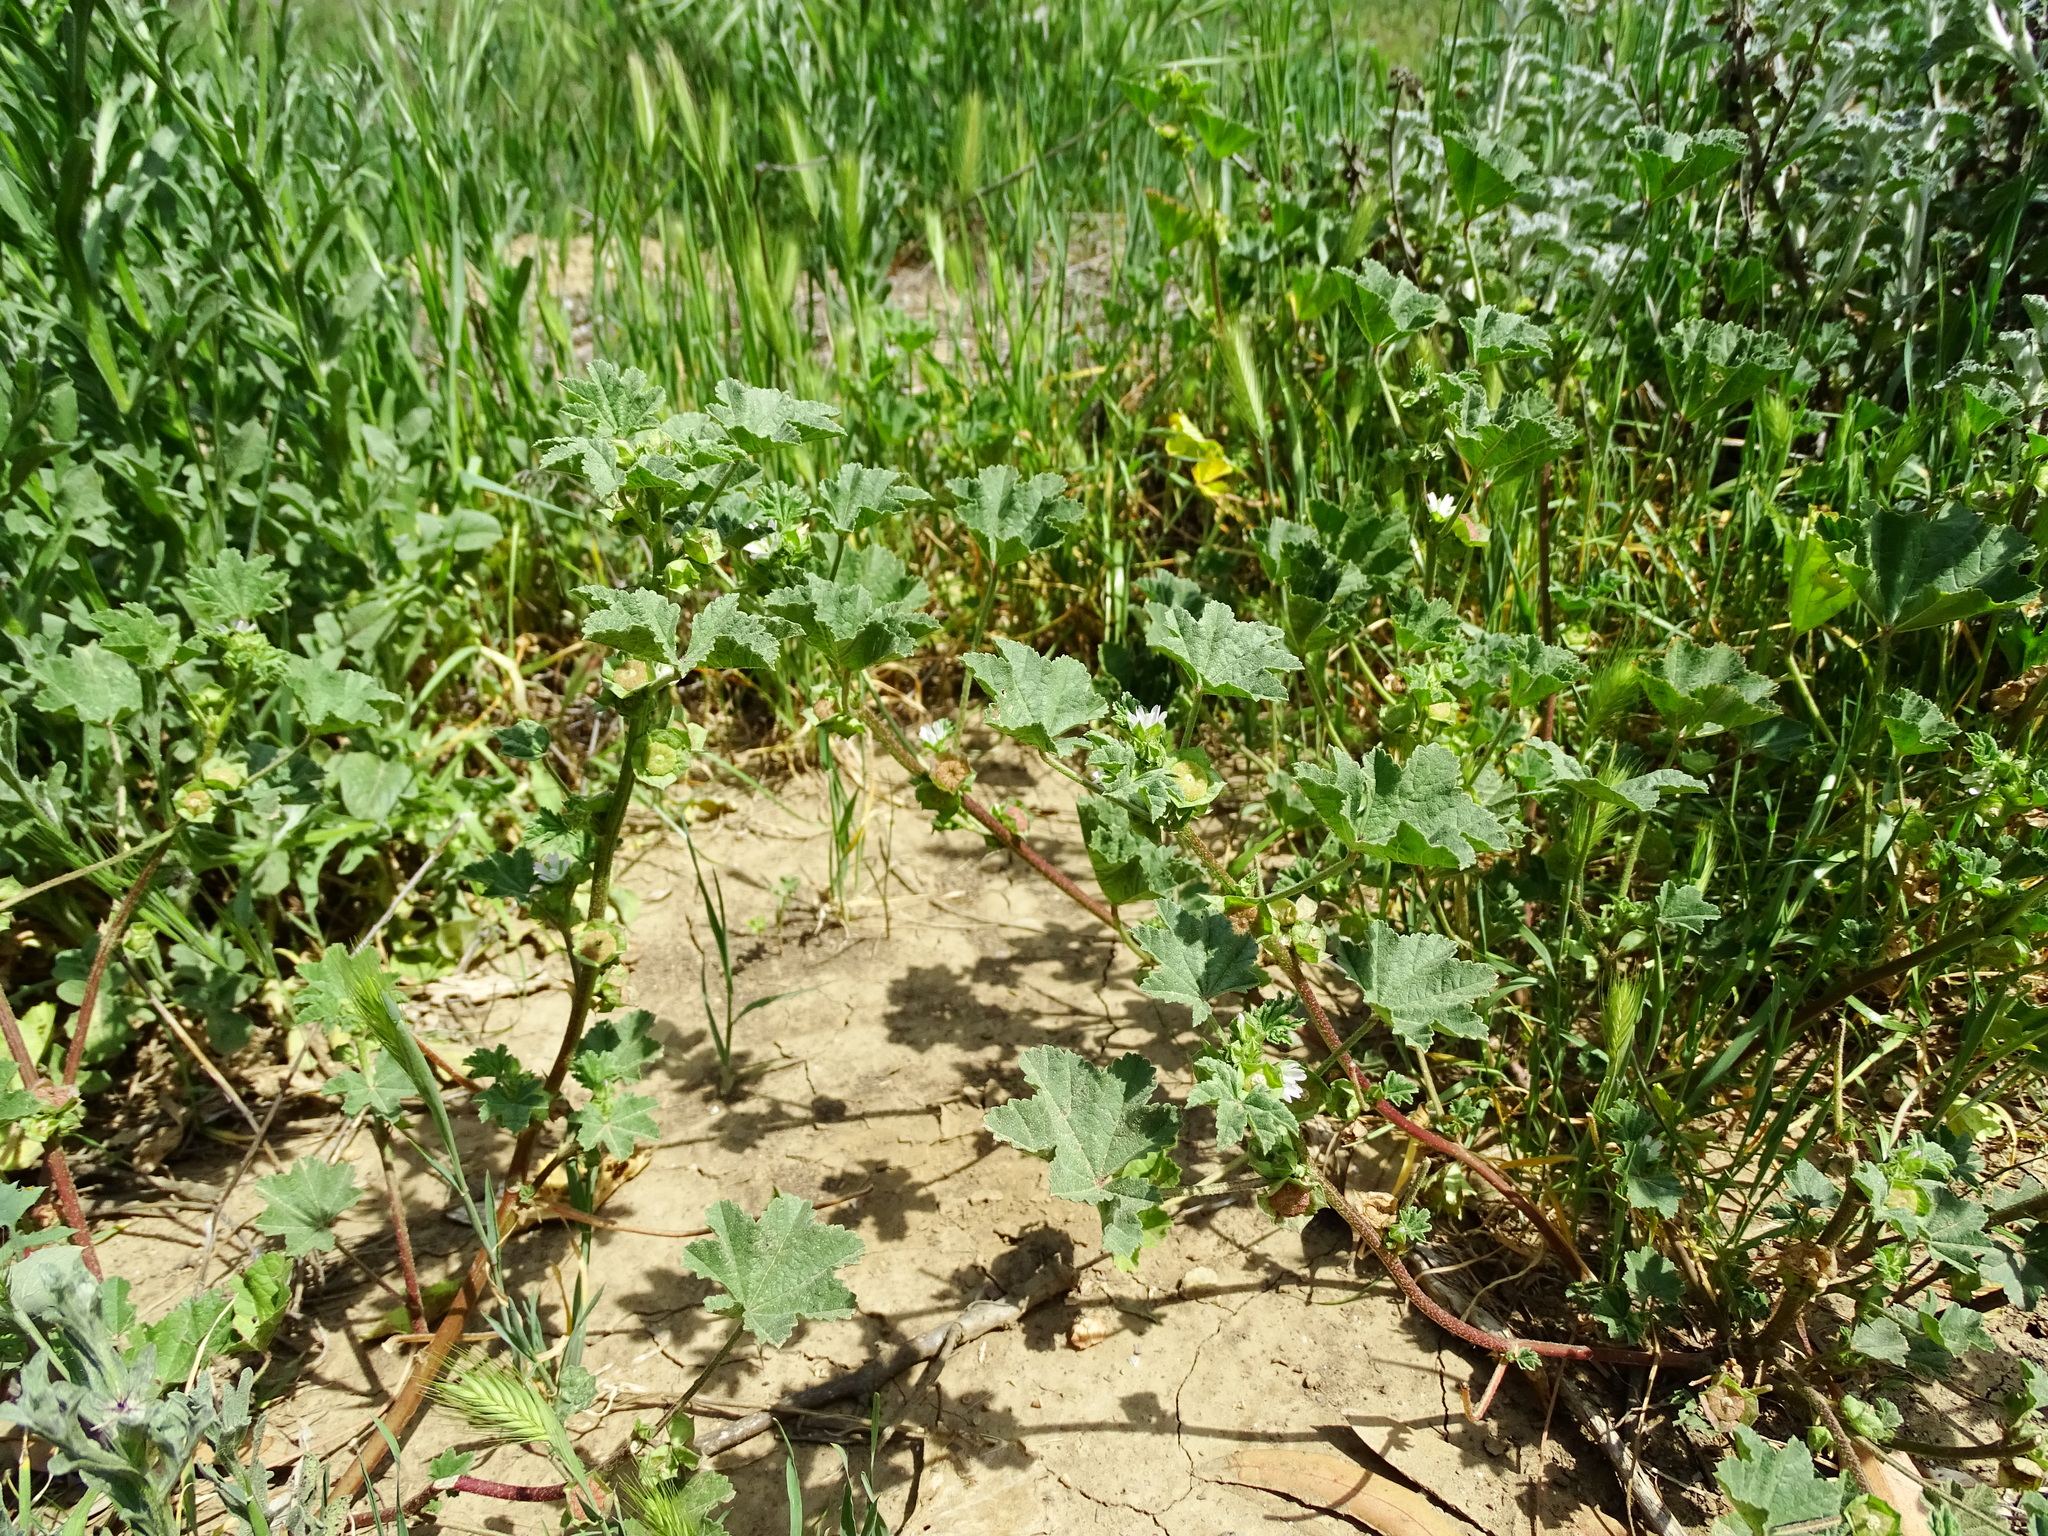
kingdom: Plantae
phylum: Tracheophyta
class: Magnoliopsida
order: Malvales
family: Malvaceae
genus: Malva
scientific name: Malva parviflora
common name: Least mallow
